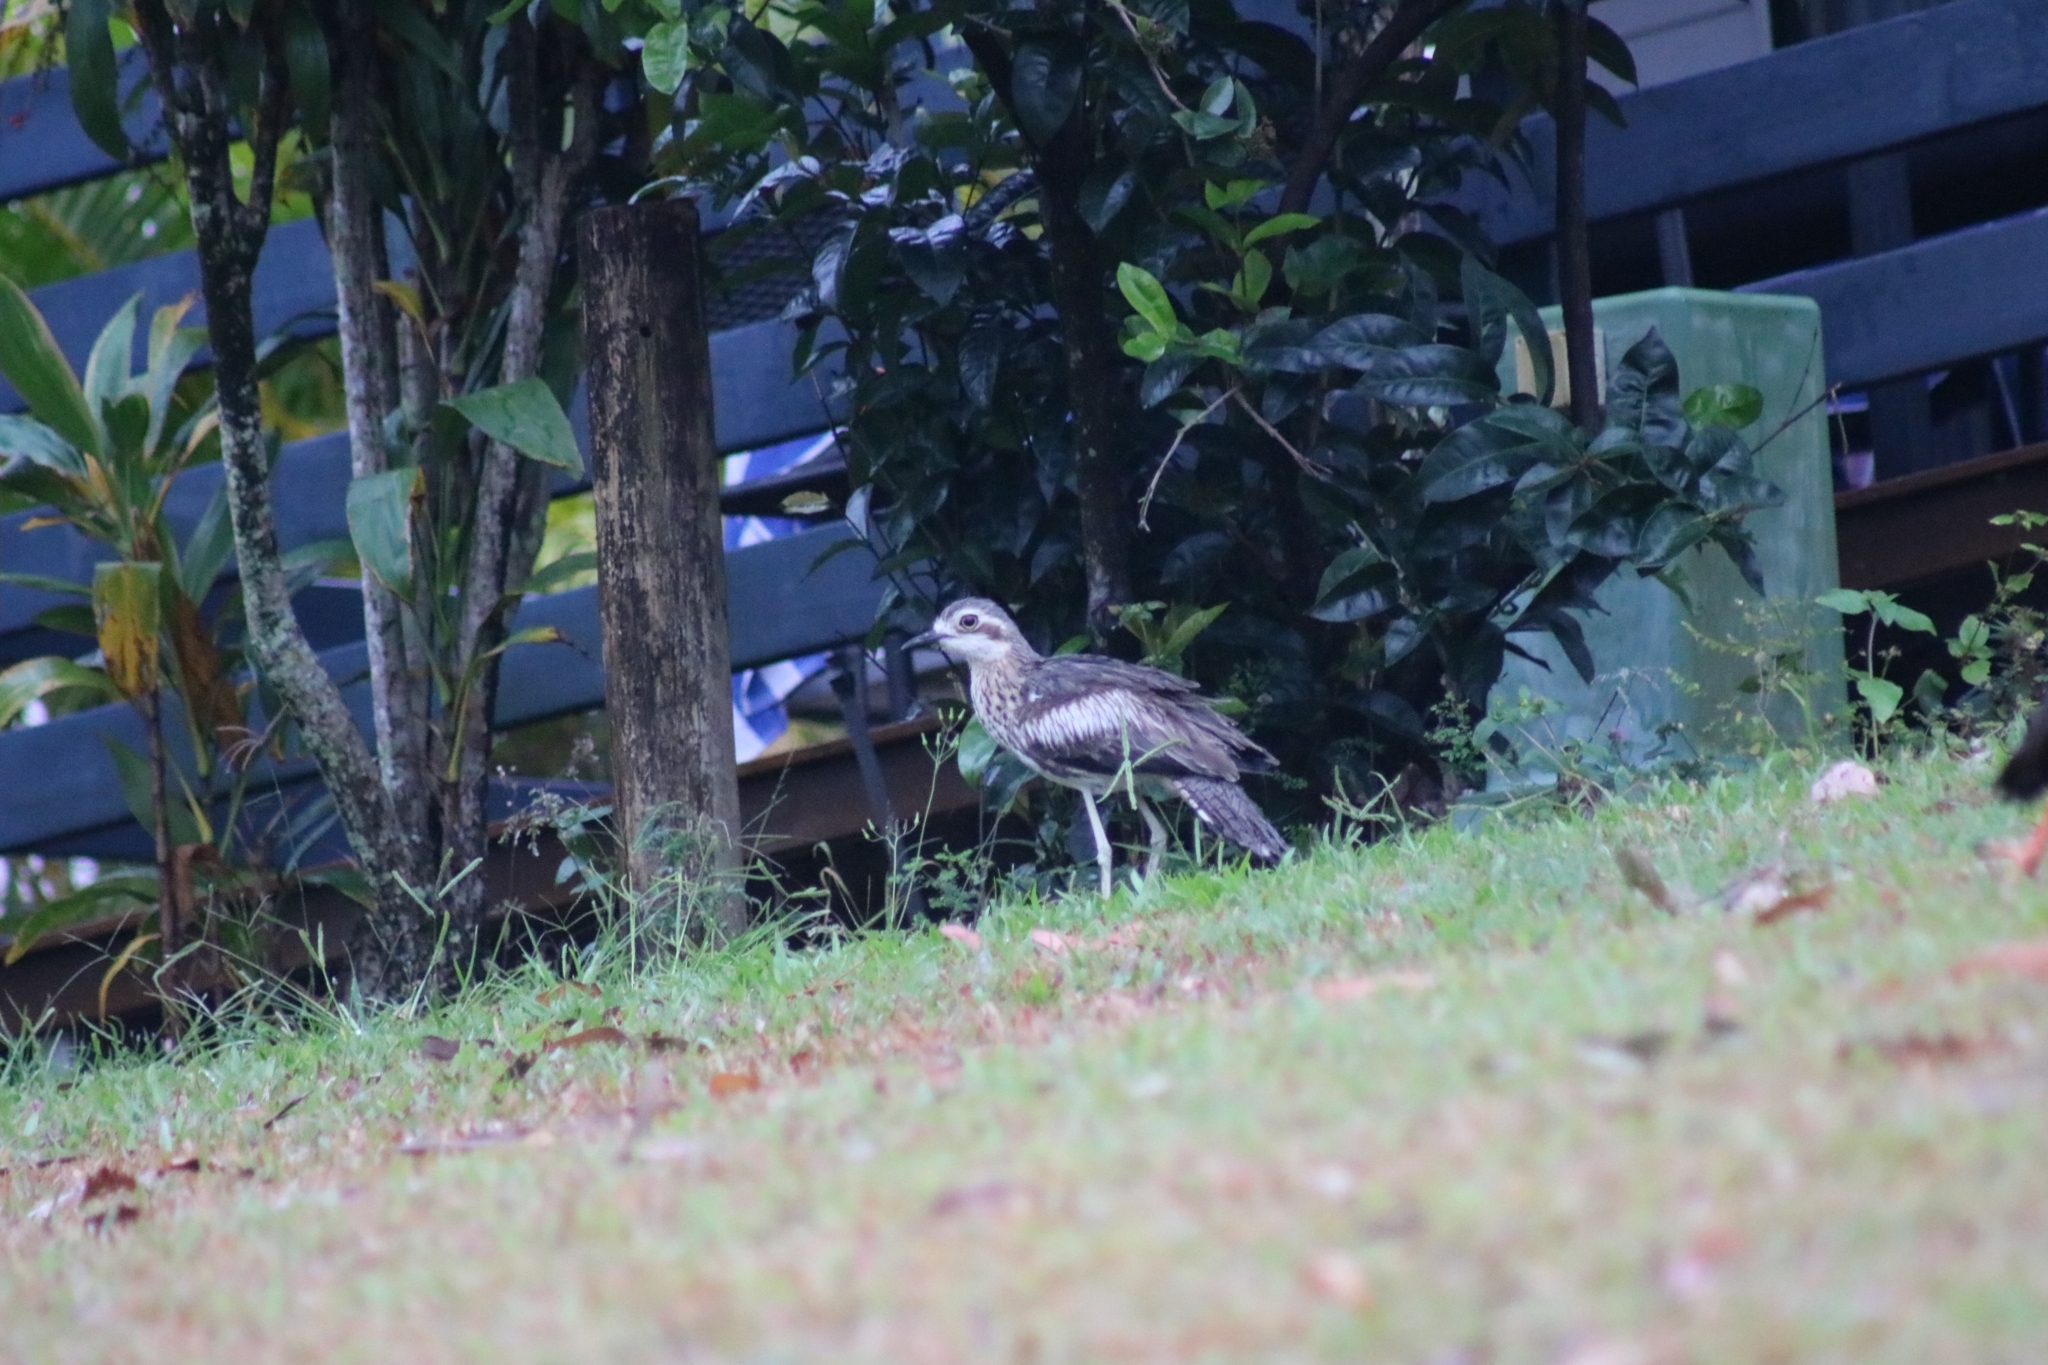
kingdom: Animalia
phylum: Chordata
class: Aves
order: Charadriiformes
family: Burhinidae
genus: Burhinus
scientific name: Burhinus grallarius
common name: Bush stone-curlew
